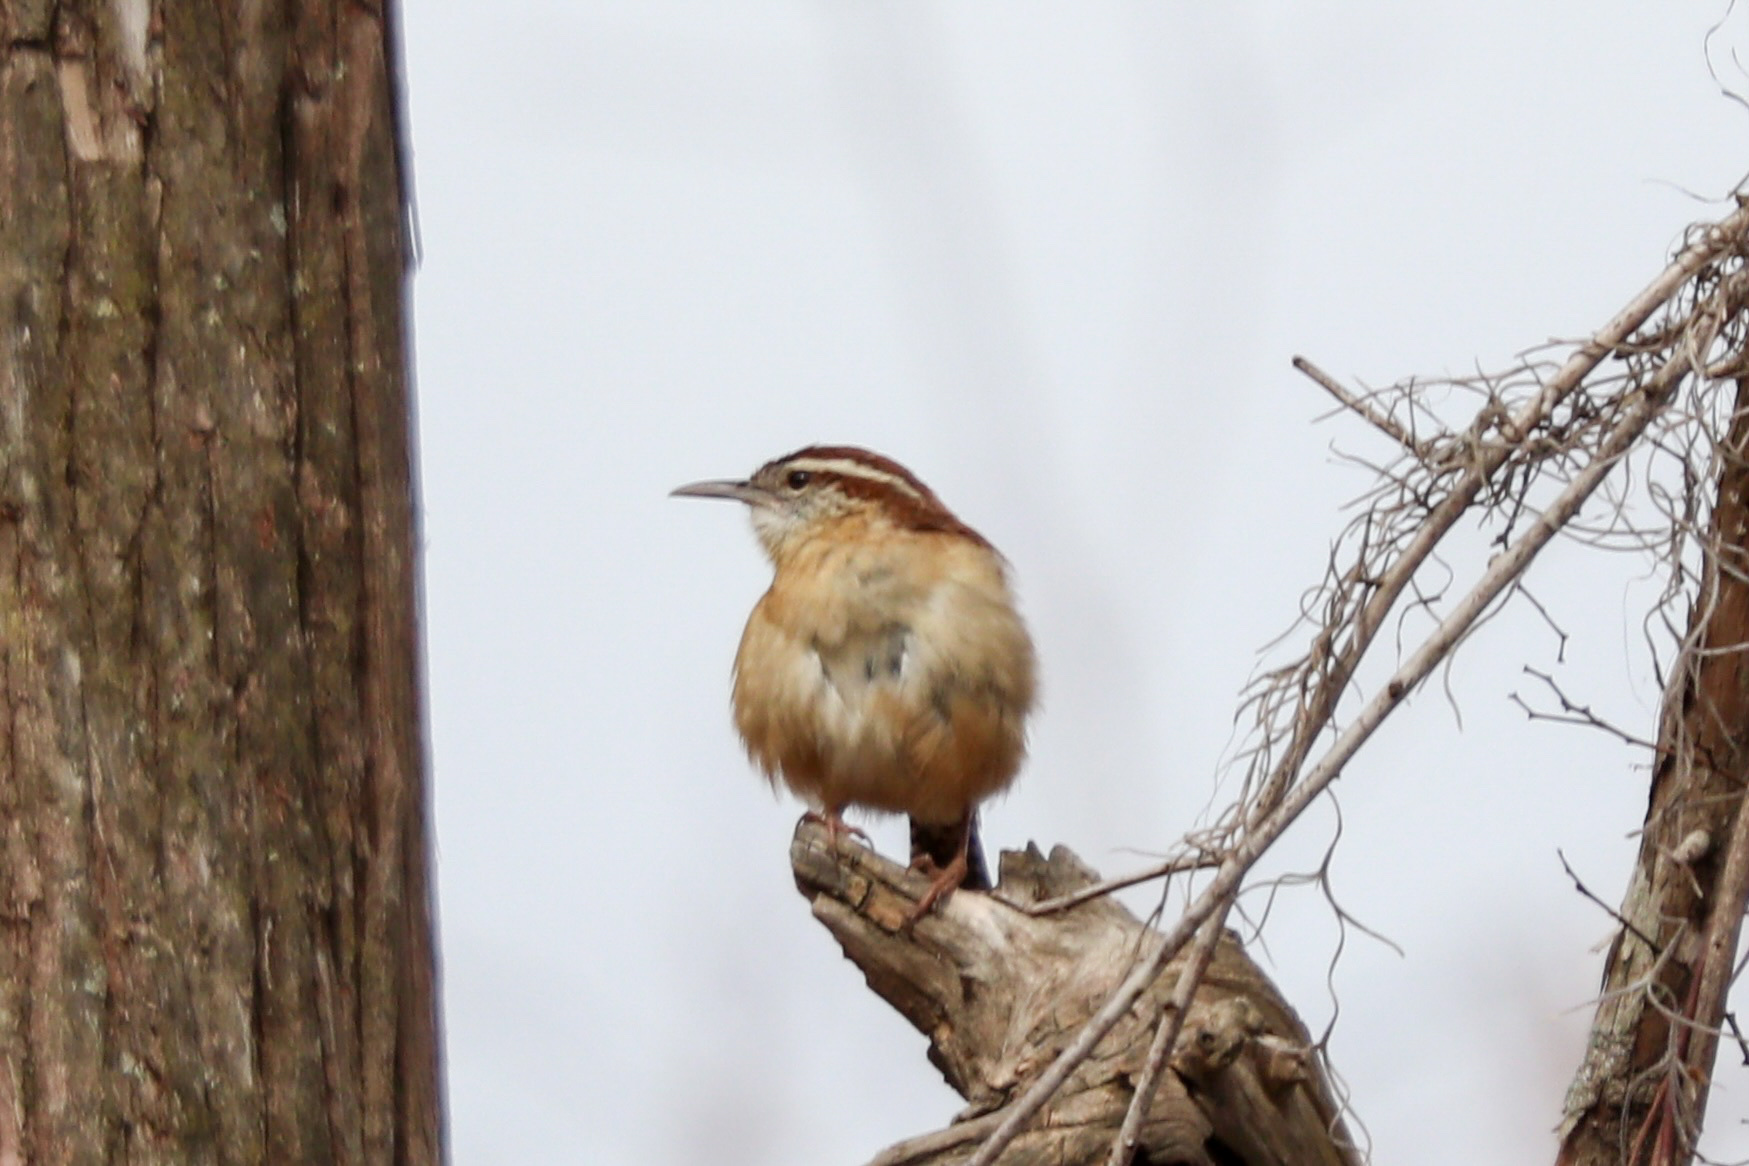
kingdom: Animalia
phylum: Chordata
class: Aves
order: Passeriformes
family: Troglodytidae
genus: Thryothorus
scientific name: Thryothorus ludovicianus
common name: Carolina wren
